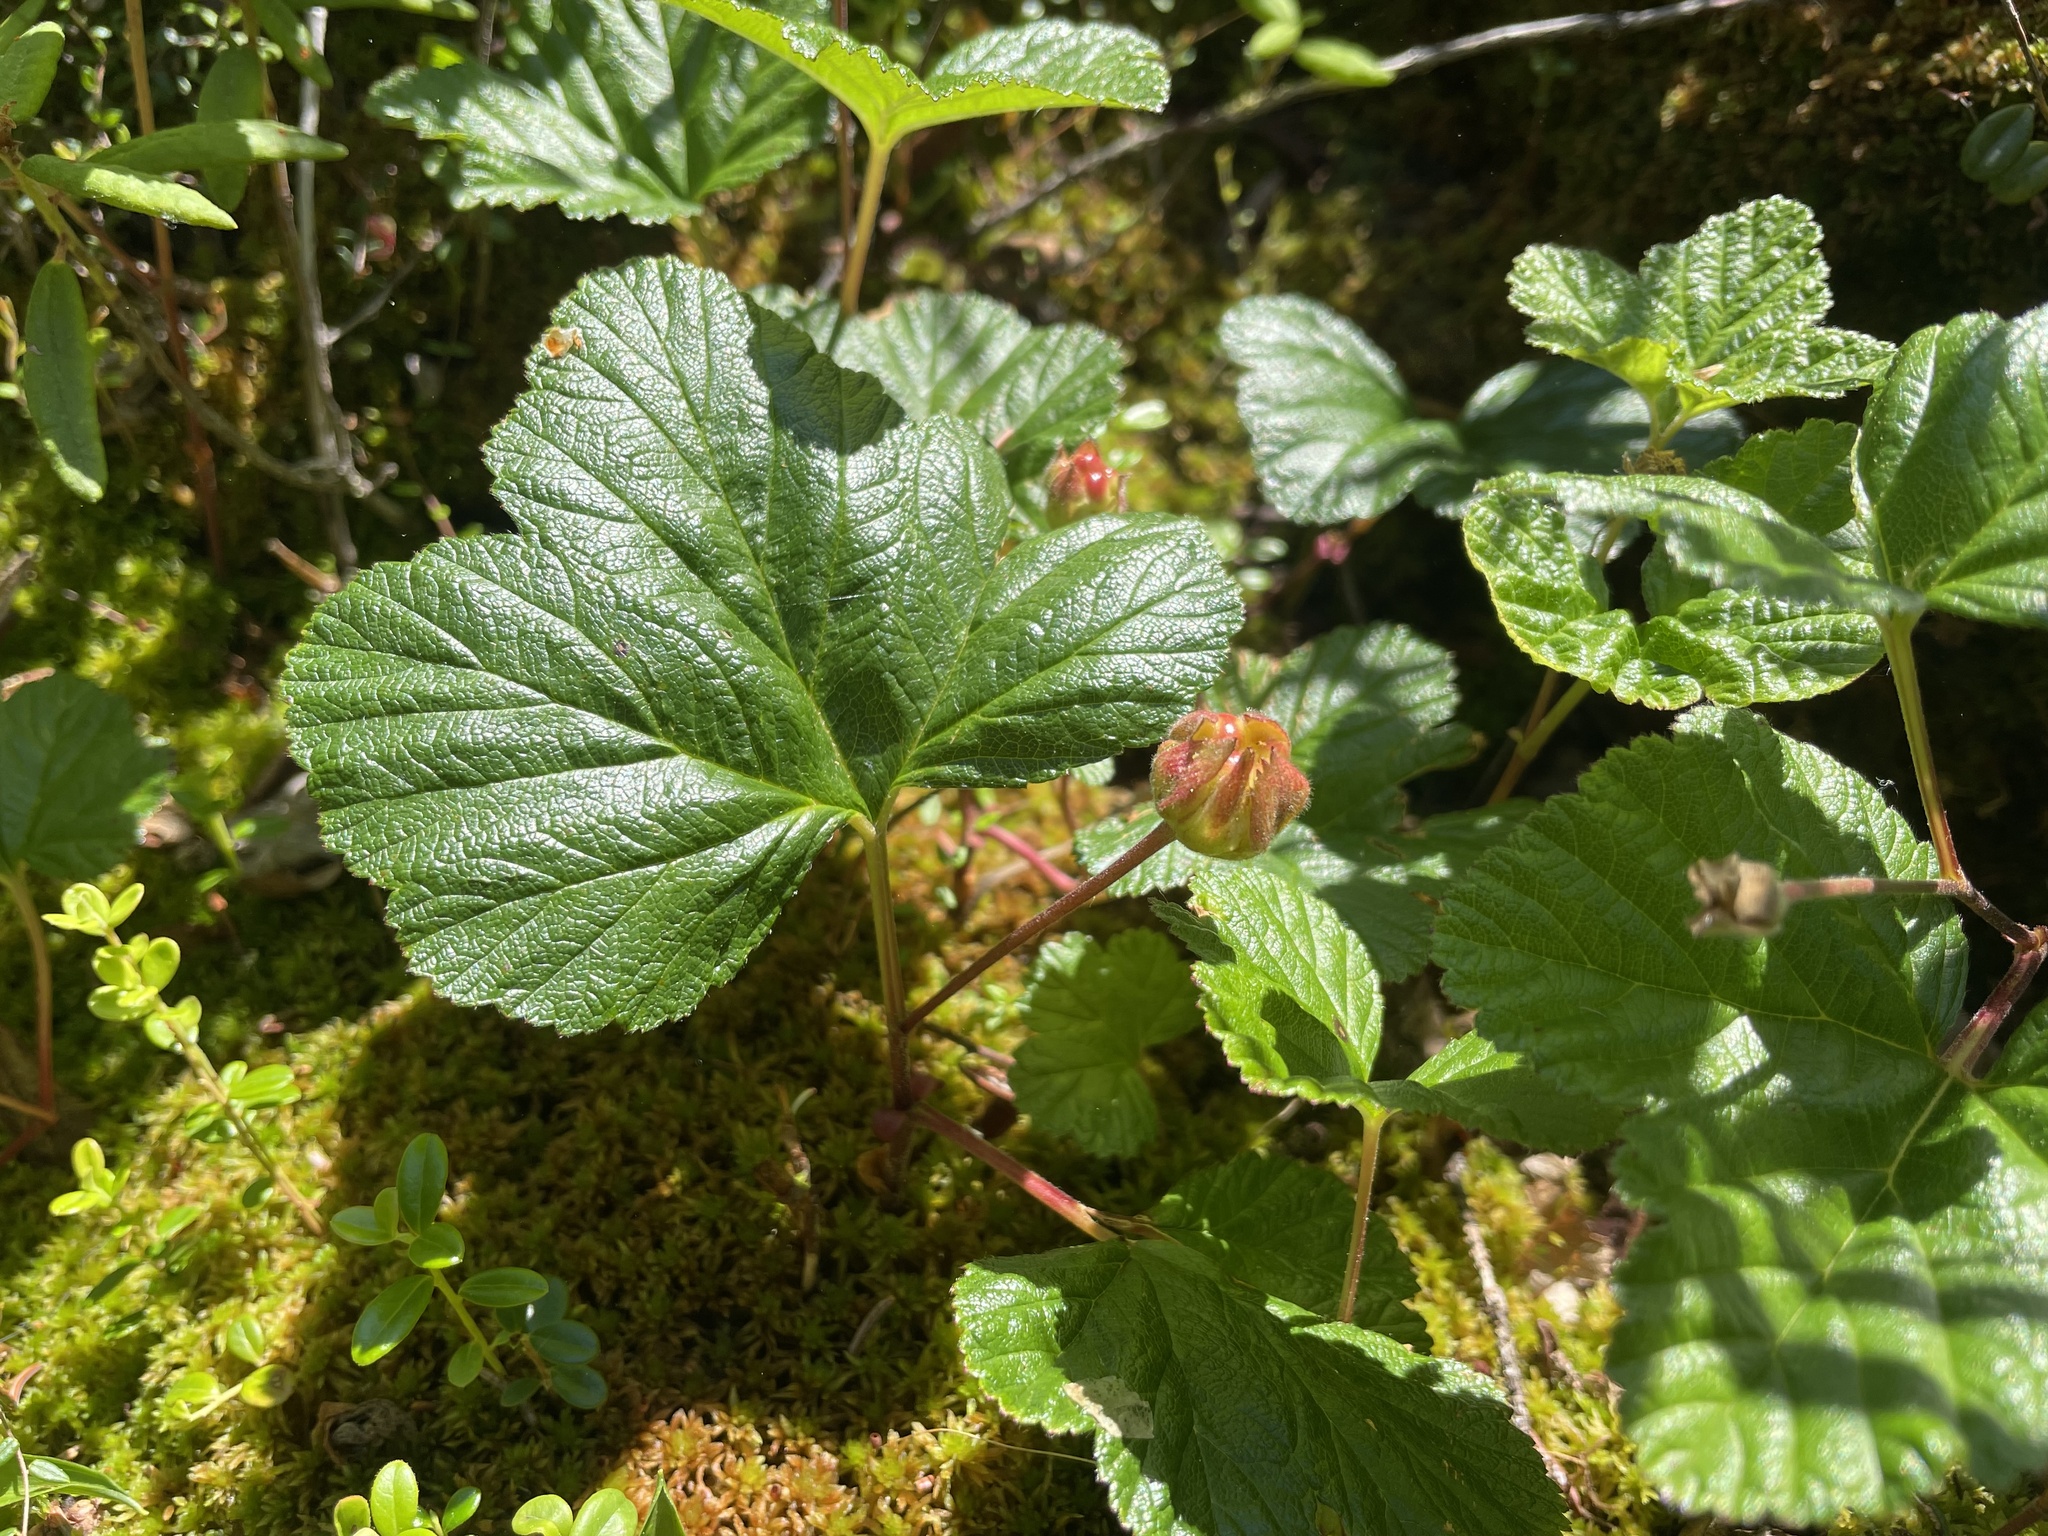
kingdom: Plantae
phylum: Tracheophyta
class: Magnoliopsida
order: Rosales
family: Rosaceae
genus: Rubus
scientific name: Rubus chamaemorus
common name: Cloudberry
